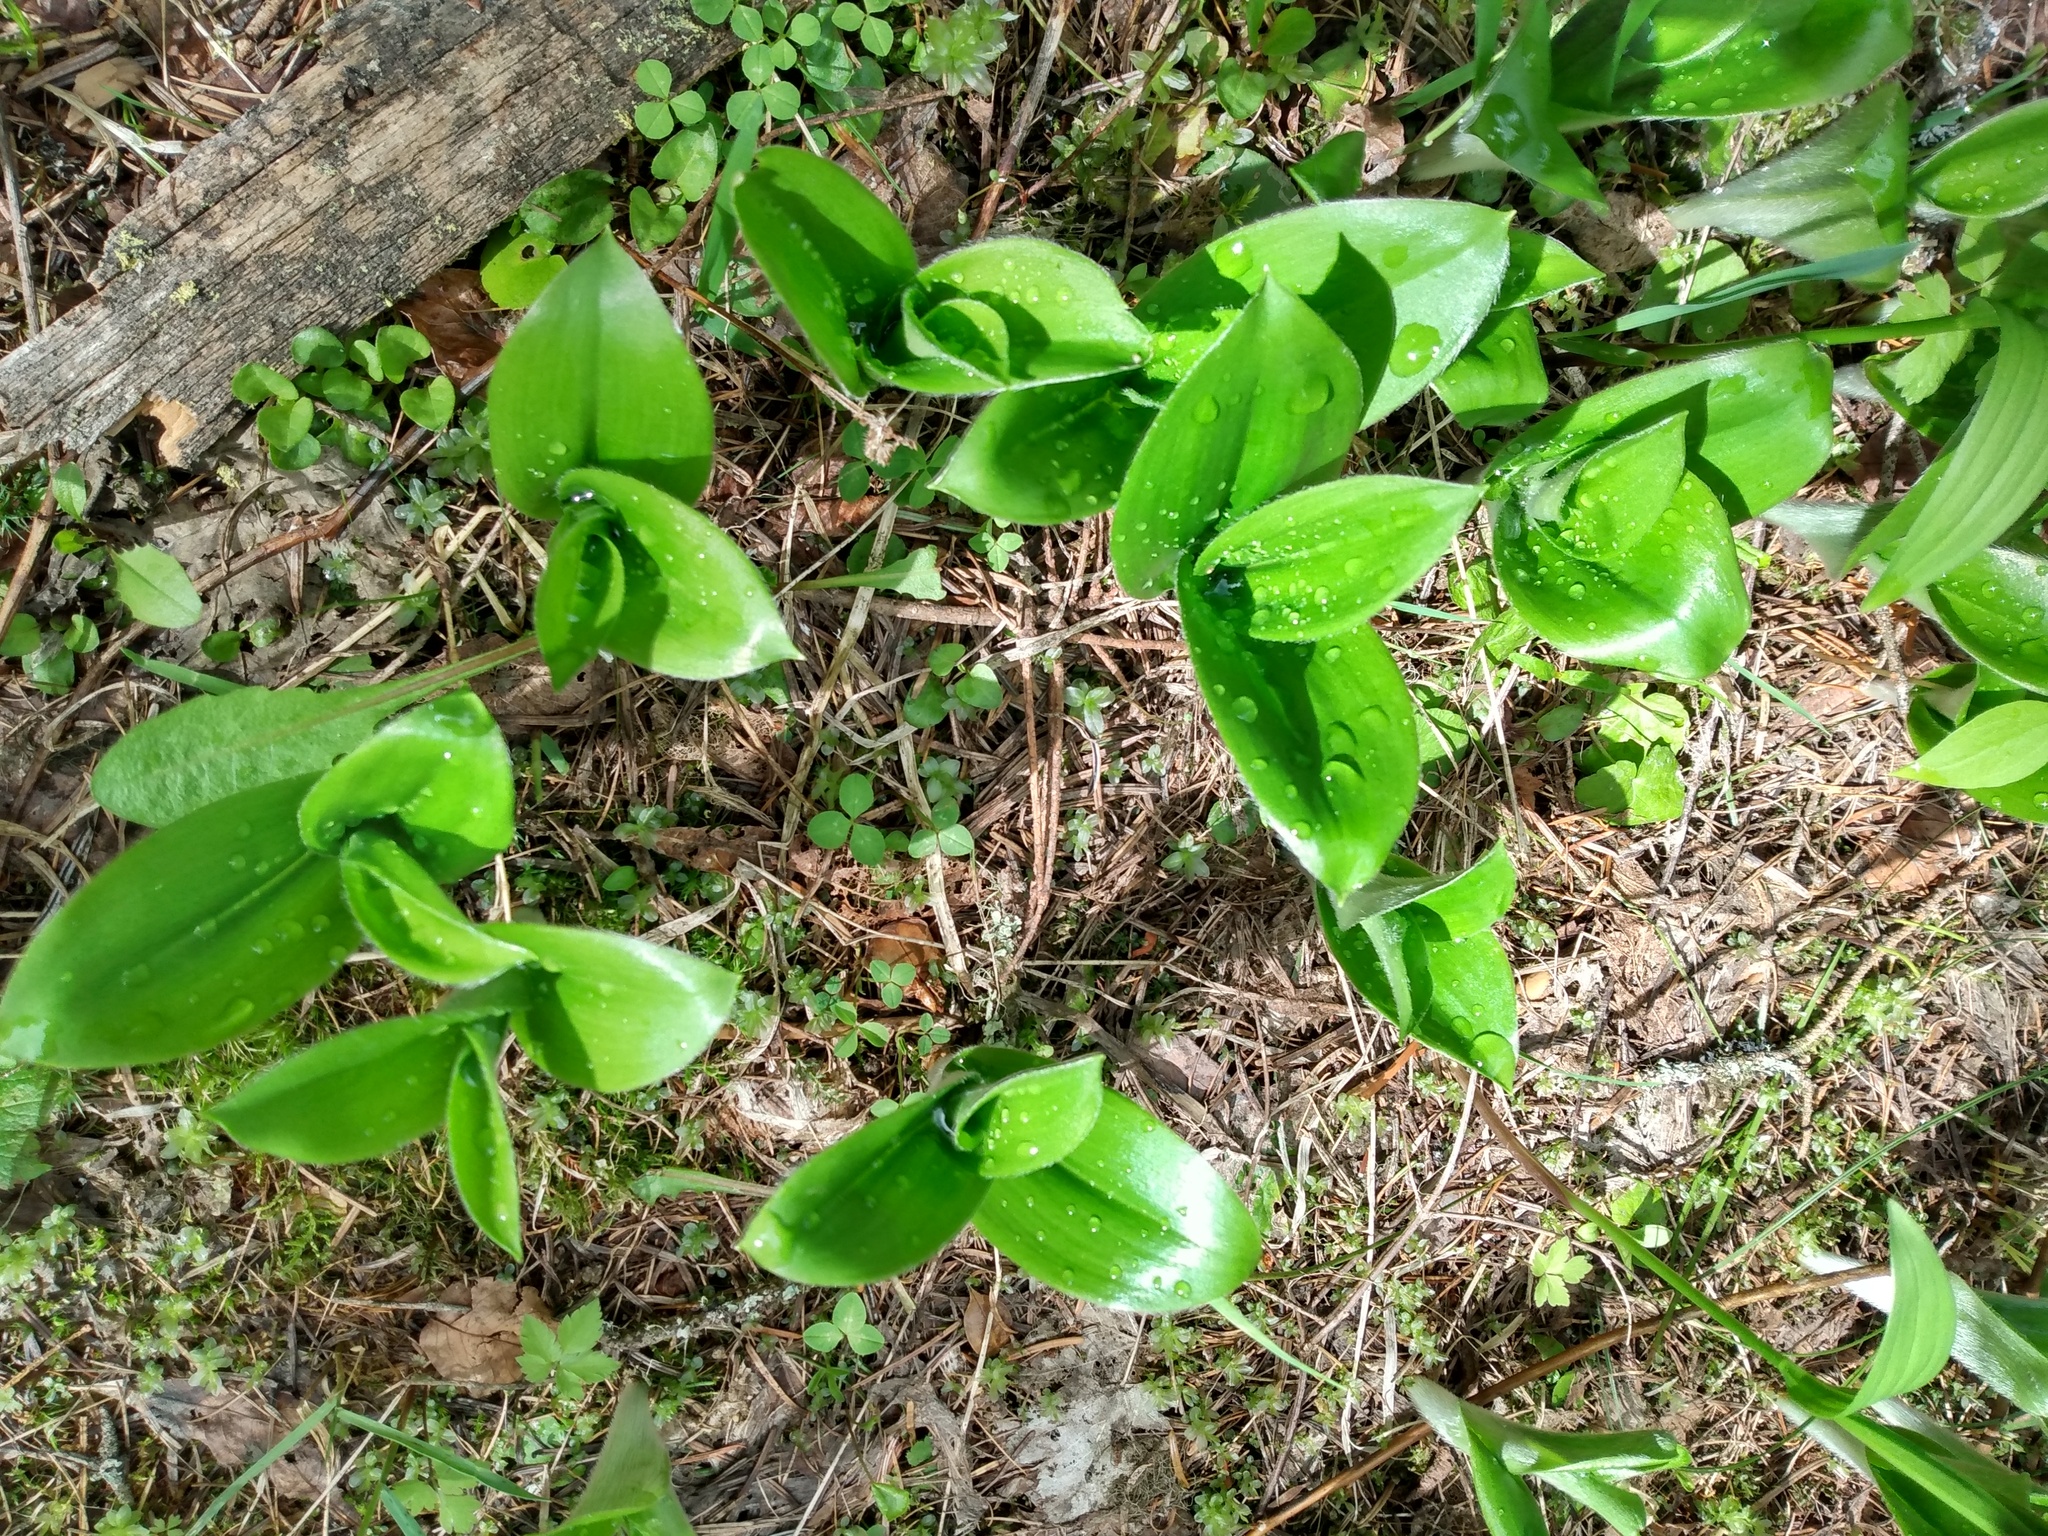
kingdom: Plantae
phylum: Tracheophyta
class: Liliopsida
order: Liliales
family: Liliaceae
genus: Clintonia
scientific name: Clintonia uniflora
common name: Queen's cup
